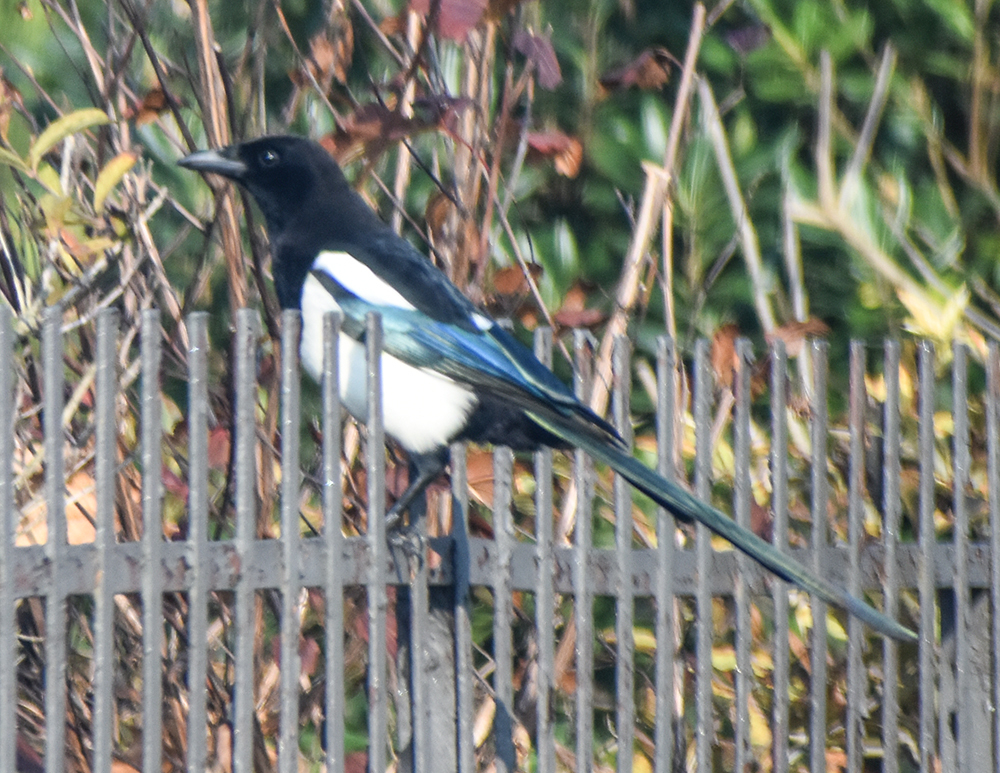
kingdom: Animalia
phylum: Chordata
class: Aves
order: Passeriformes
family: Corvidae
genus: Pica
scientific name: Pica pica
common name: Eurasian magpie
